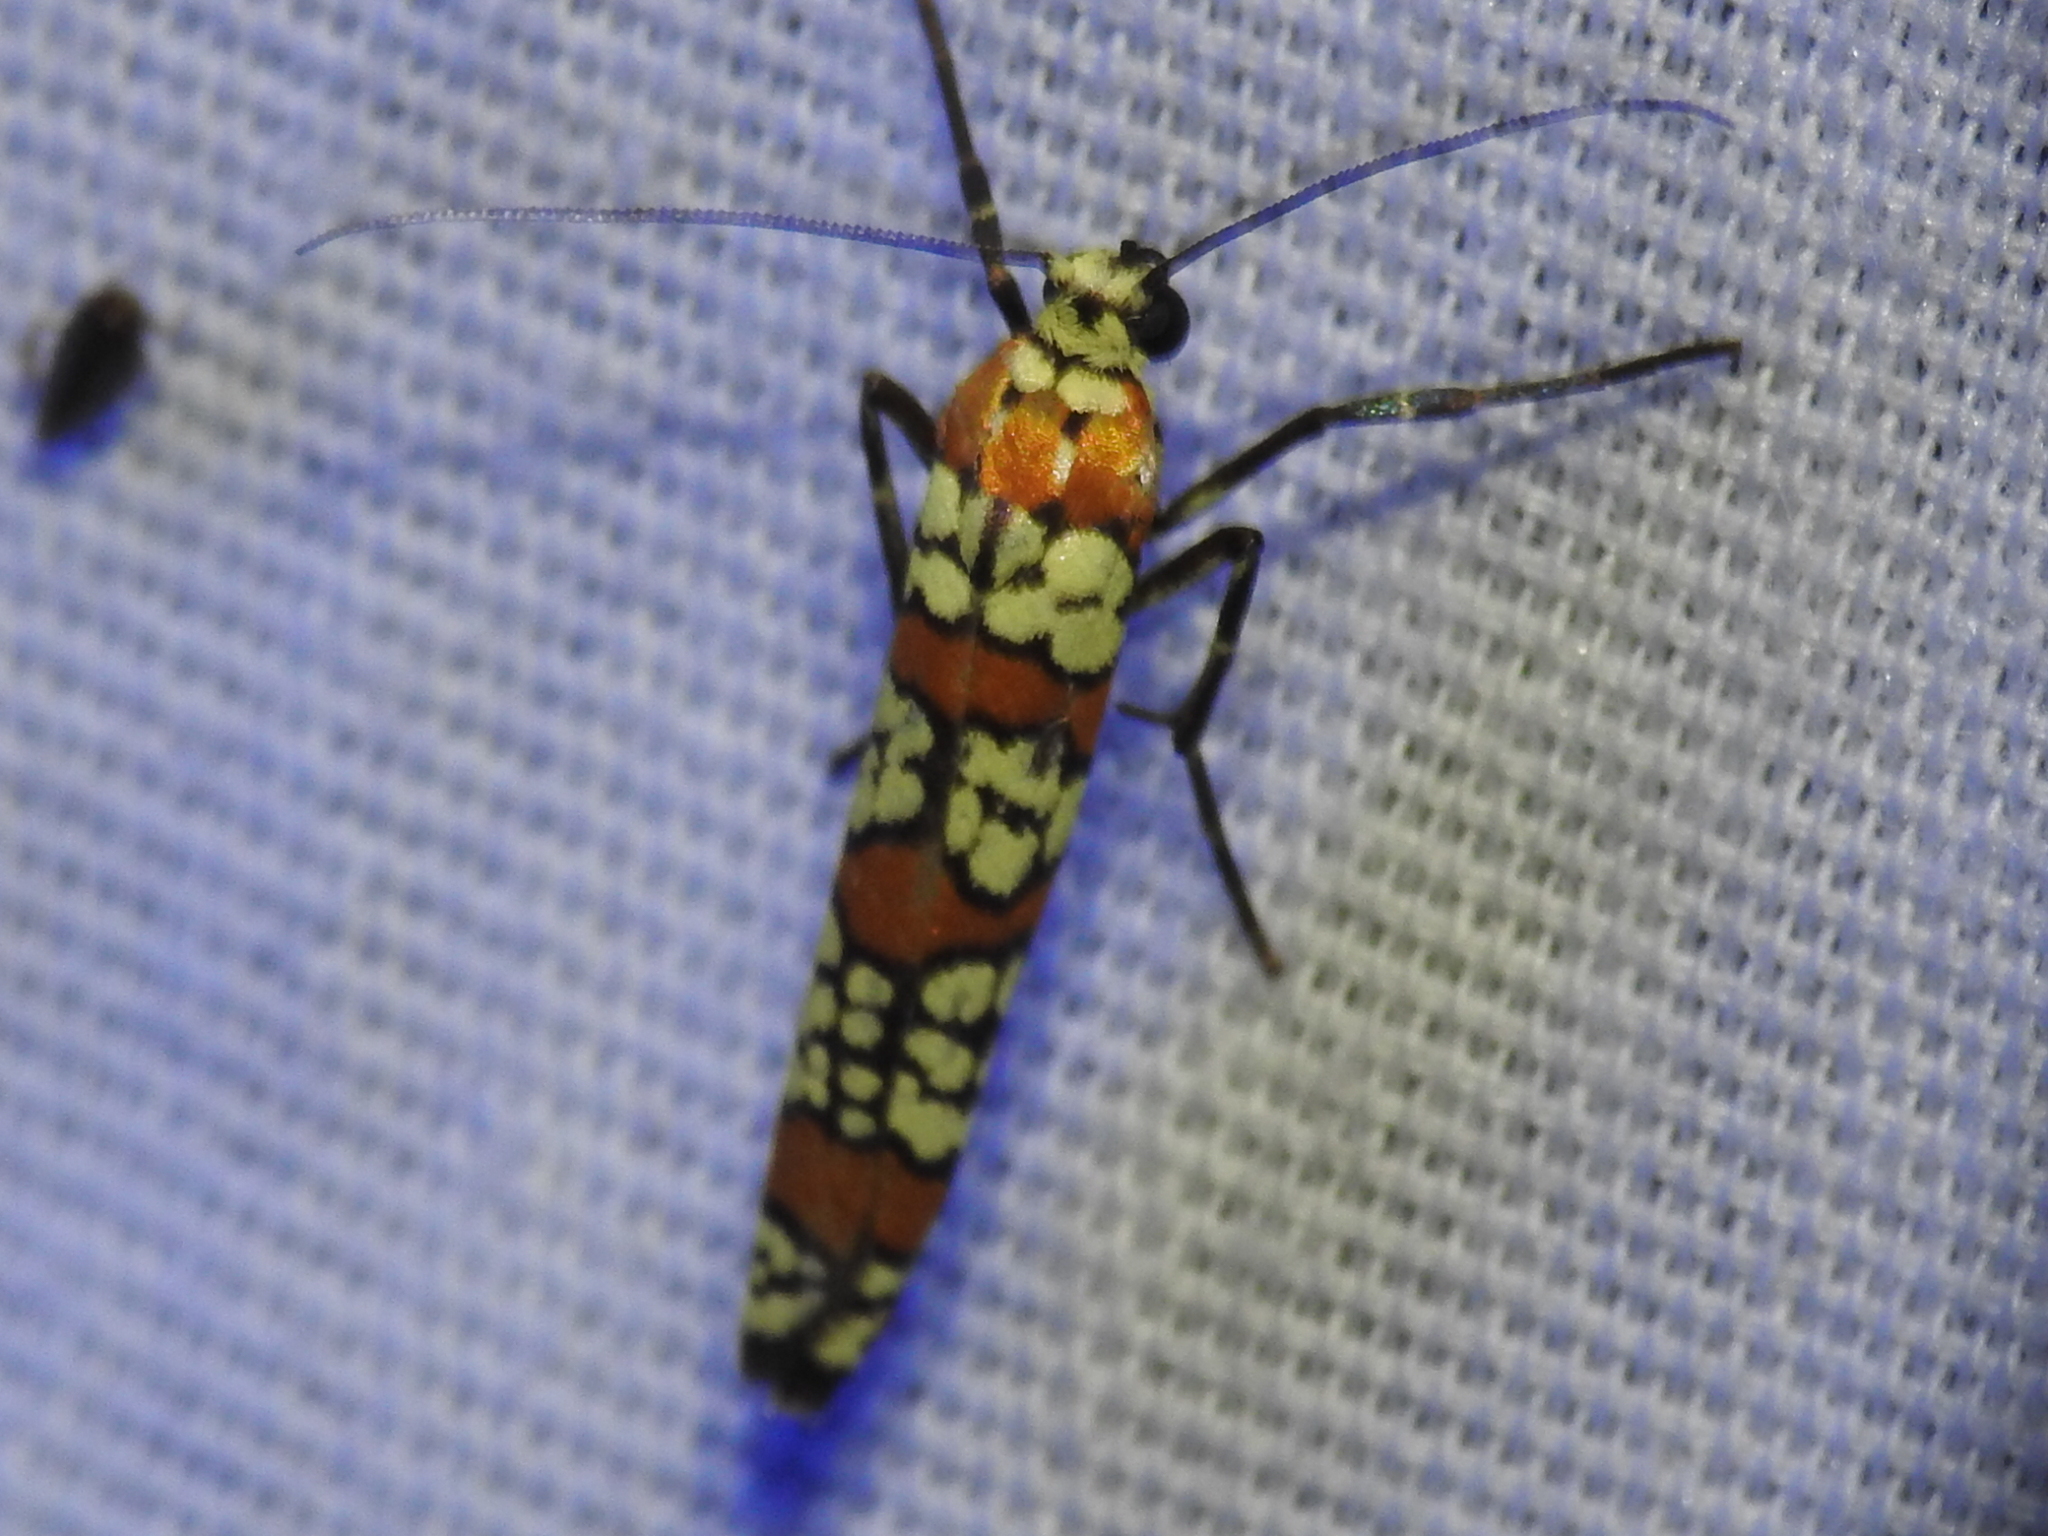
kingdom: Animalia
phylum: Arthropoda
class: Insecta
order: Lepidoptera
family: Attevidae
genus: Atteva
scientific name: Atteva punctella
